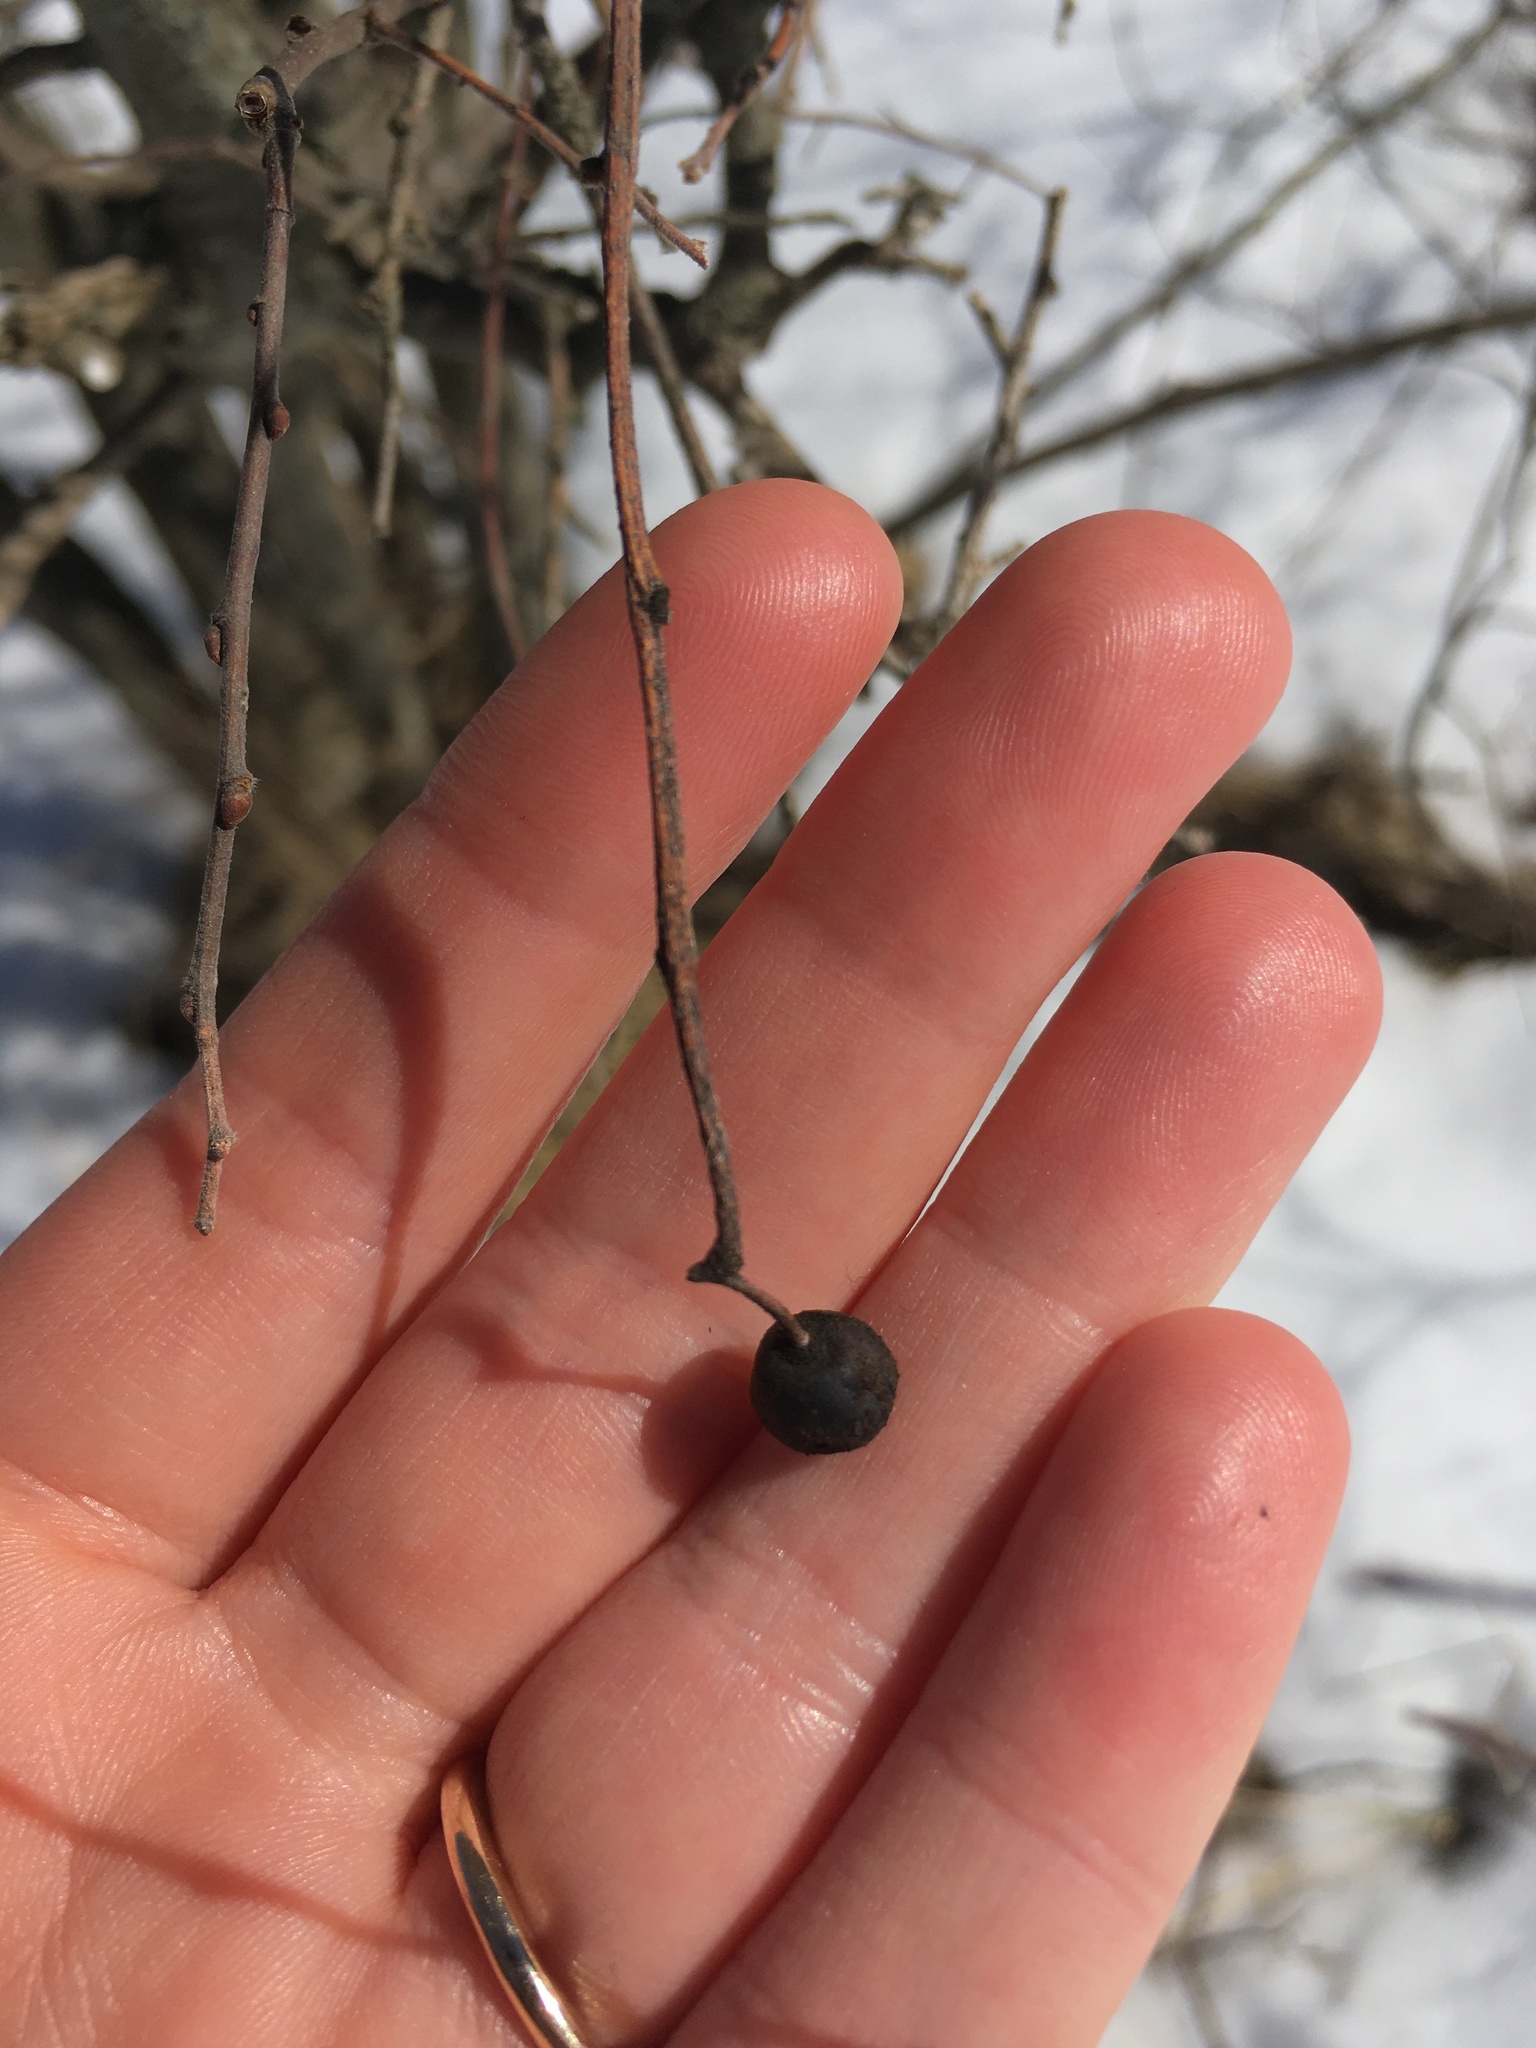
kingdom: Plantae
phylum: Tracheophyta
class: Magnoliopsida
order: Rosales
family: Cannabaceae
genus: Celtis
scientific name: Celtis tenuifolia
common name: Georgia hackberry
